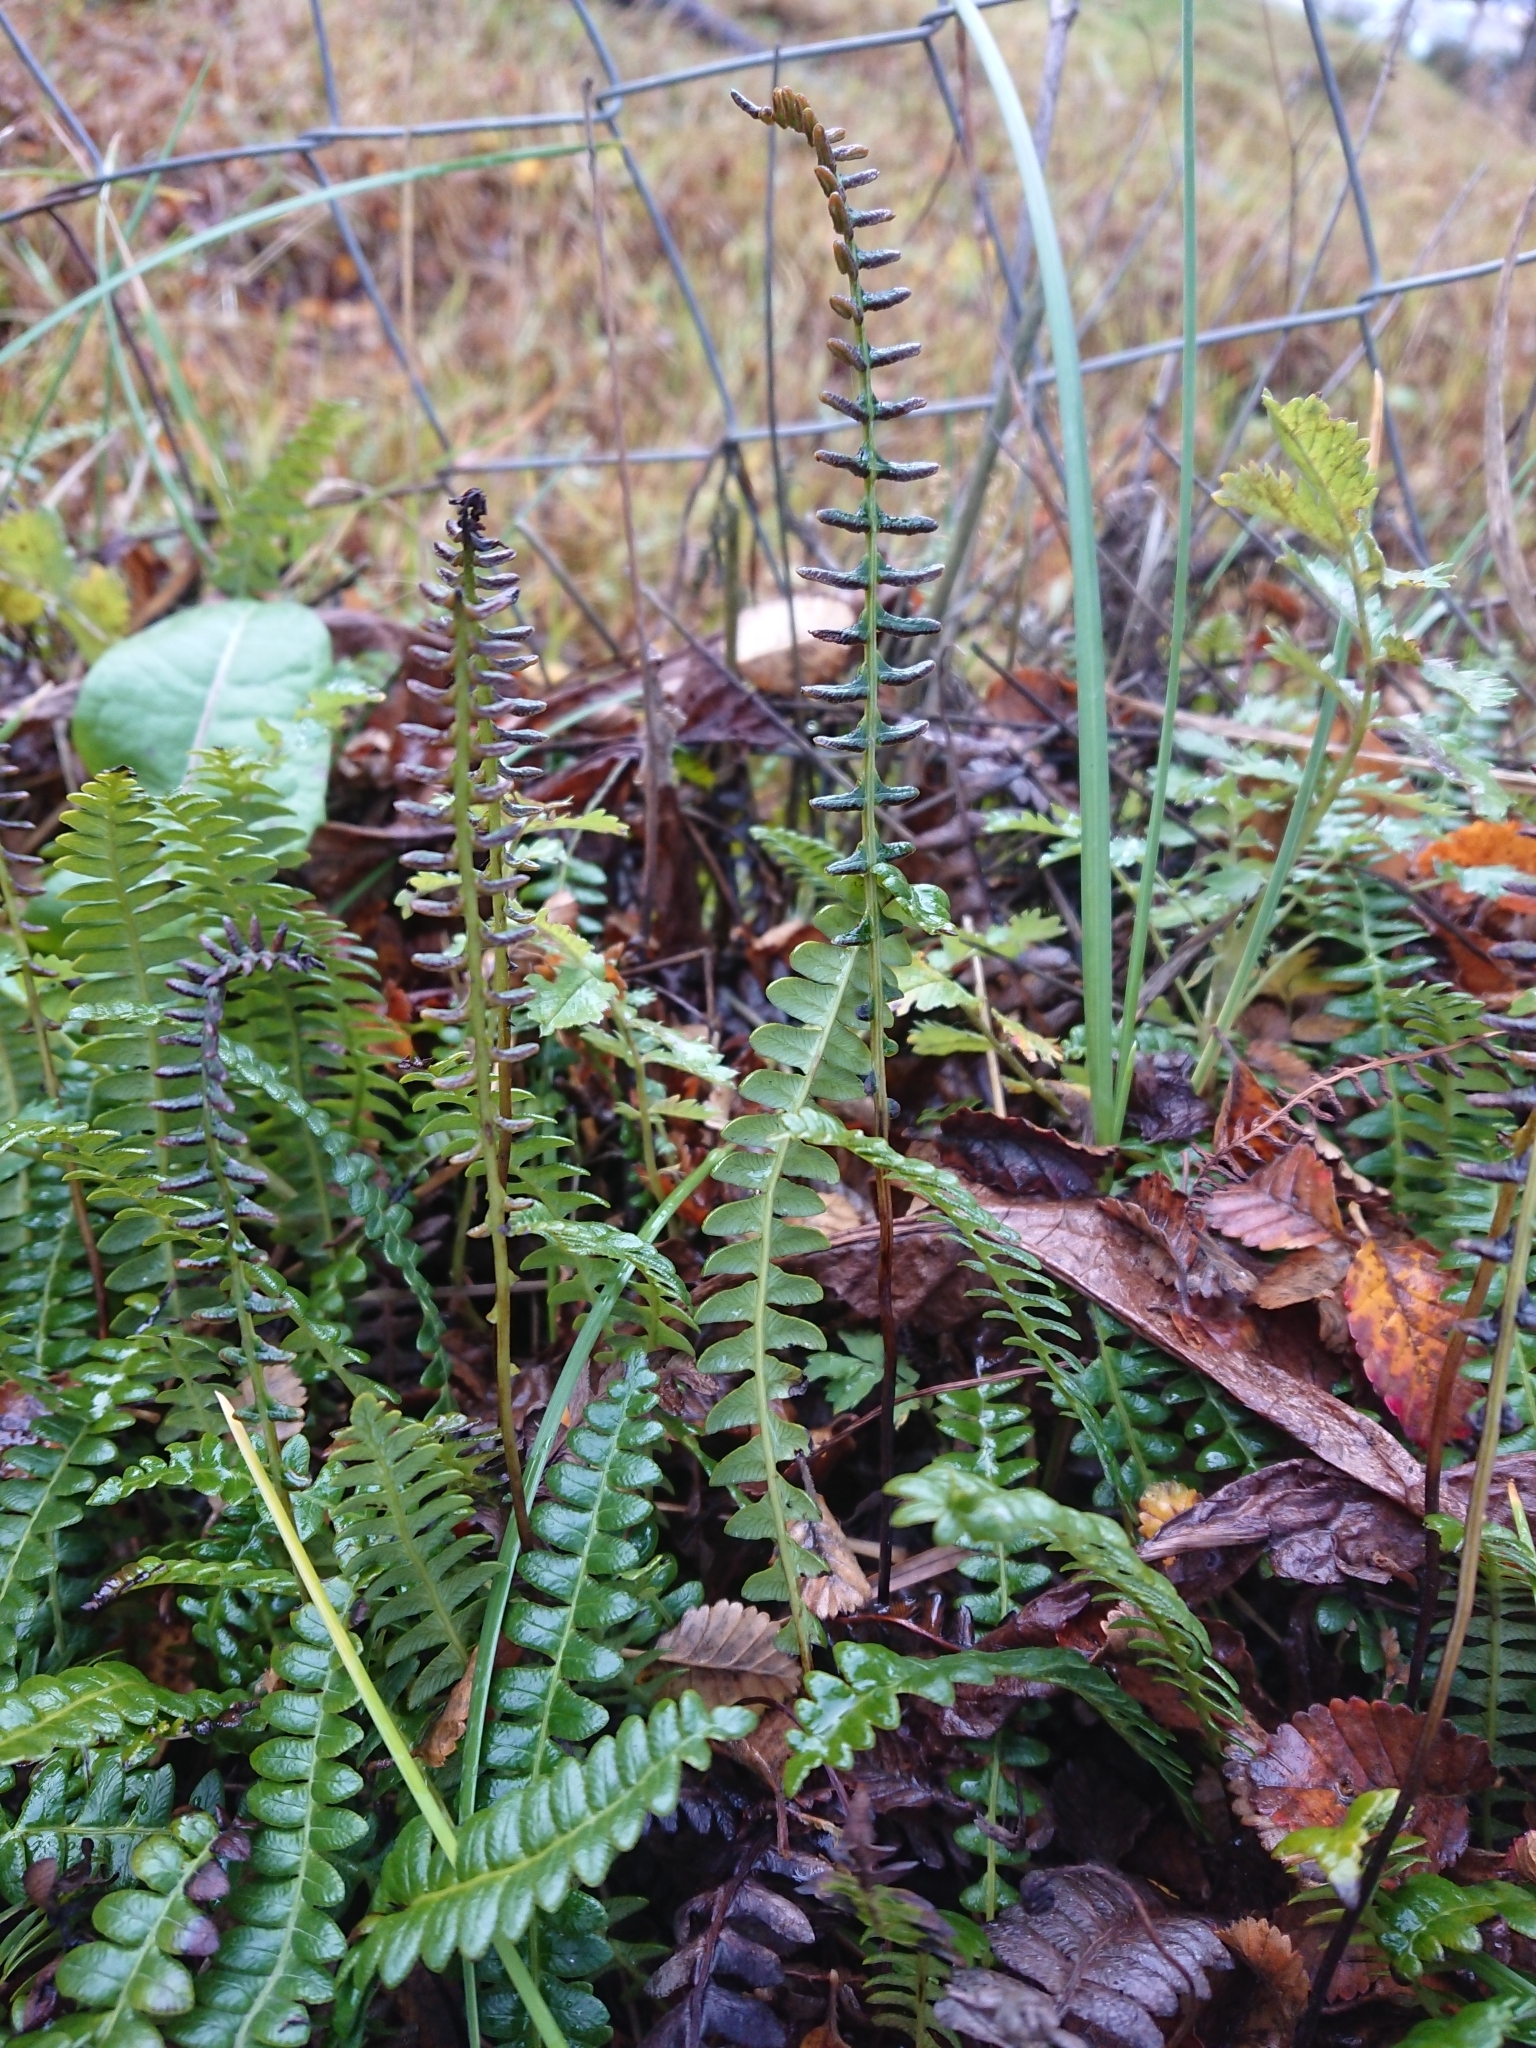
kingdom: Plantae
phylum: Tracheophyta
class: Polypodiopsida
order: Polypodiales
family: Blechnaceae
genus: Austroblechnum
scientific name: Austroblechnum penna-marina
